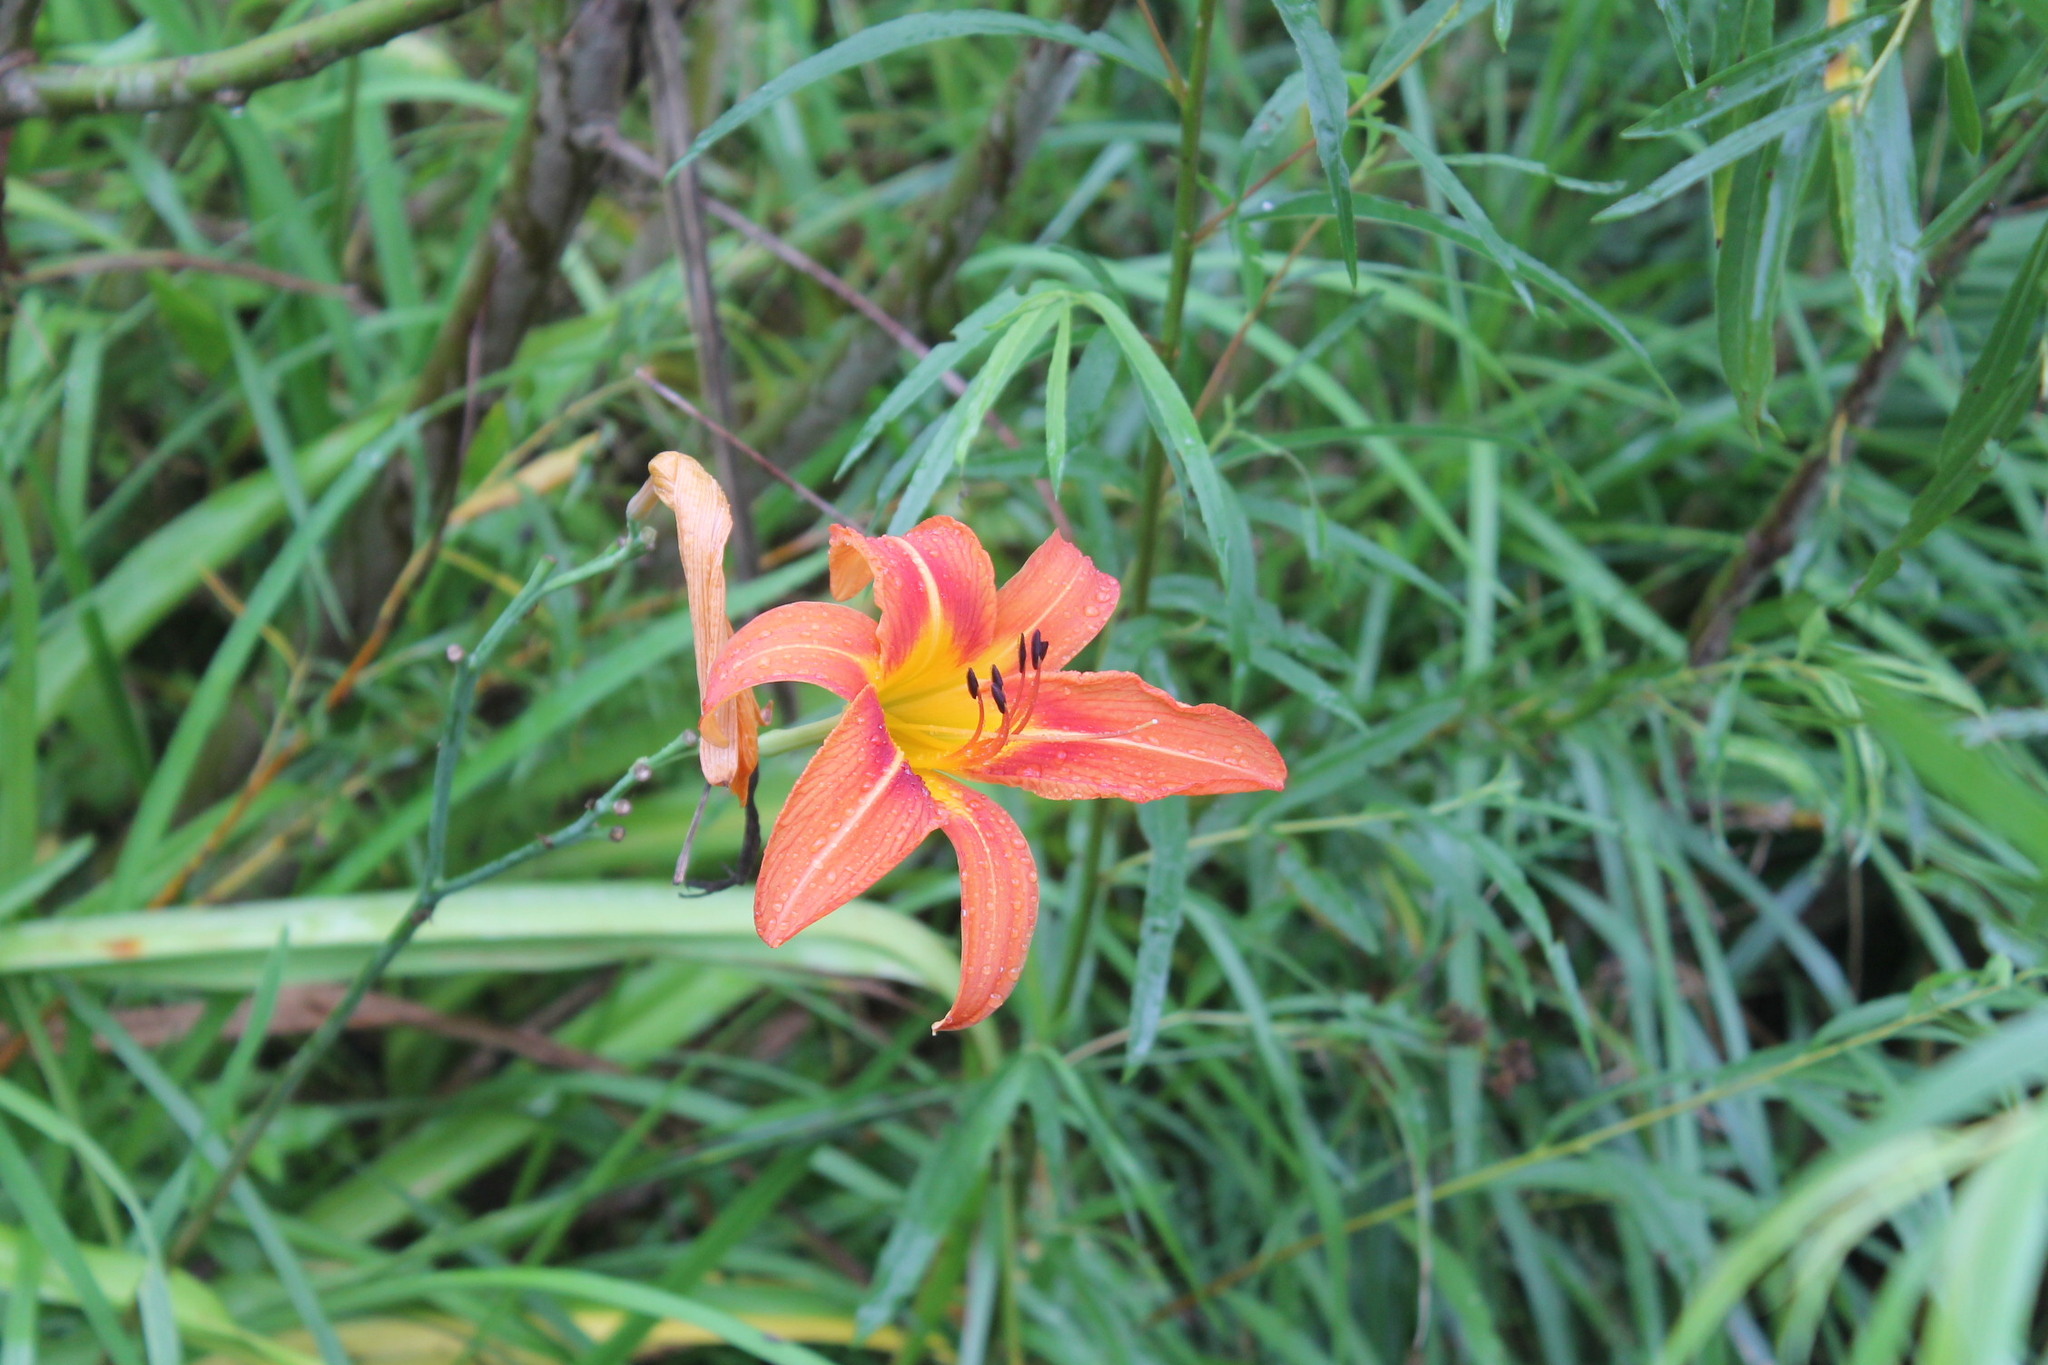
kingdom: Plantae
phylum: Tracheophyta
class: Liliopsida
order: Asparagales
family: Asphodelaceae
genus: Hemerocallis
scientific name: Hemerocallis fulva
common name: Orange day-lily
